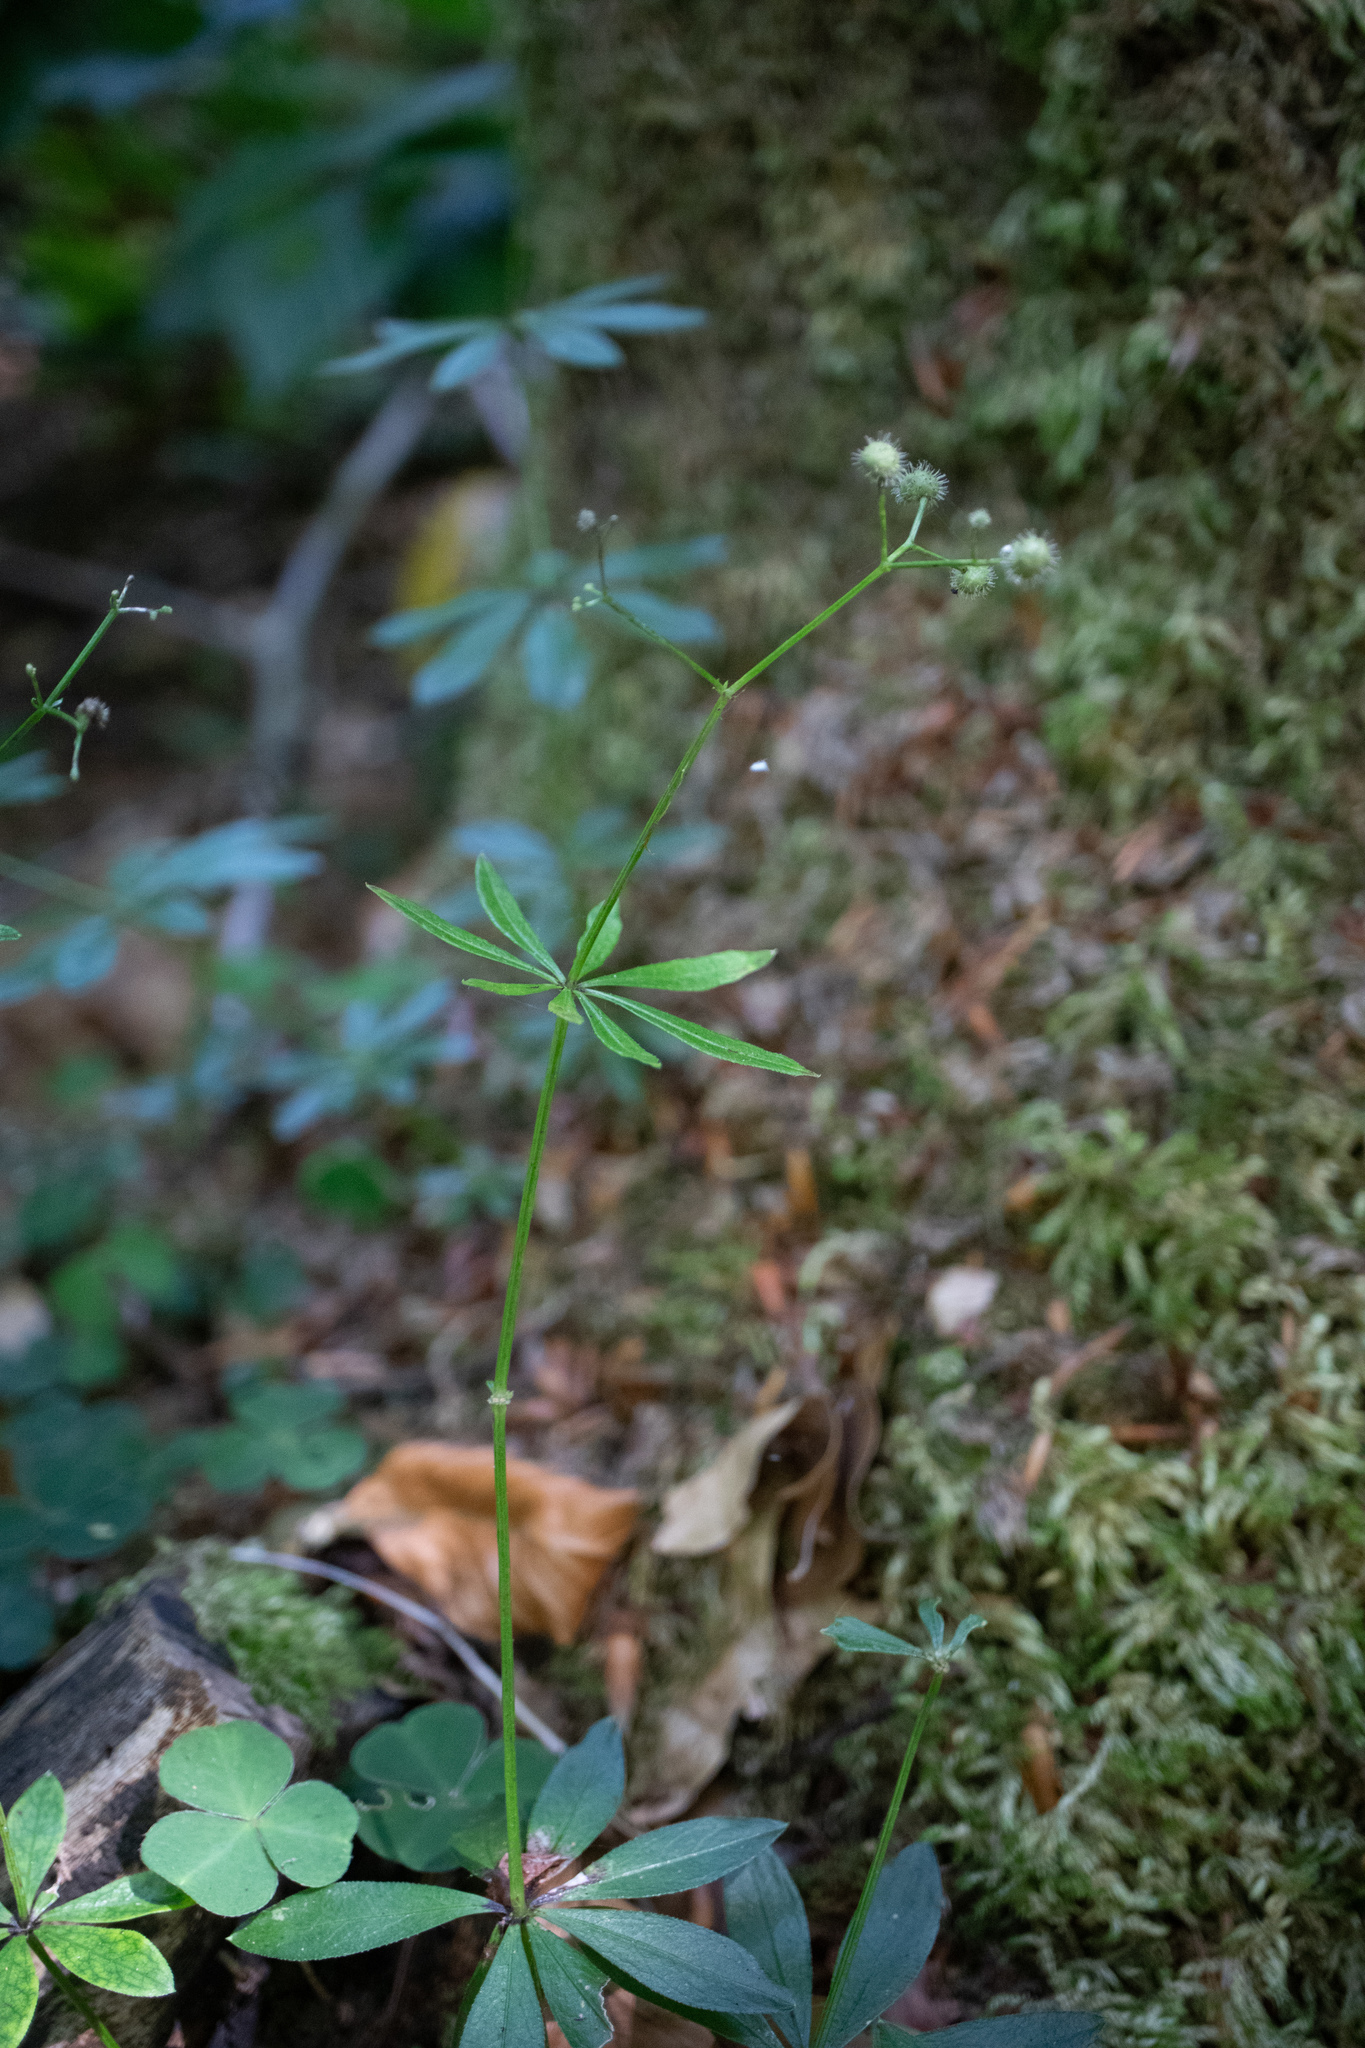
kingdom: Plantae
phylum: Tracheophyta
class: Magnoliopsida
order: Gentianales
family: Rubiaceae
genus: Galium
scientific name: Galium odoratum
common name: Sweet woodruff
